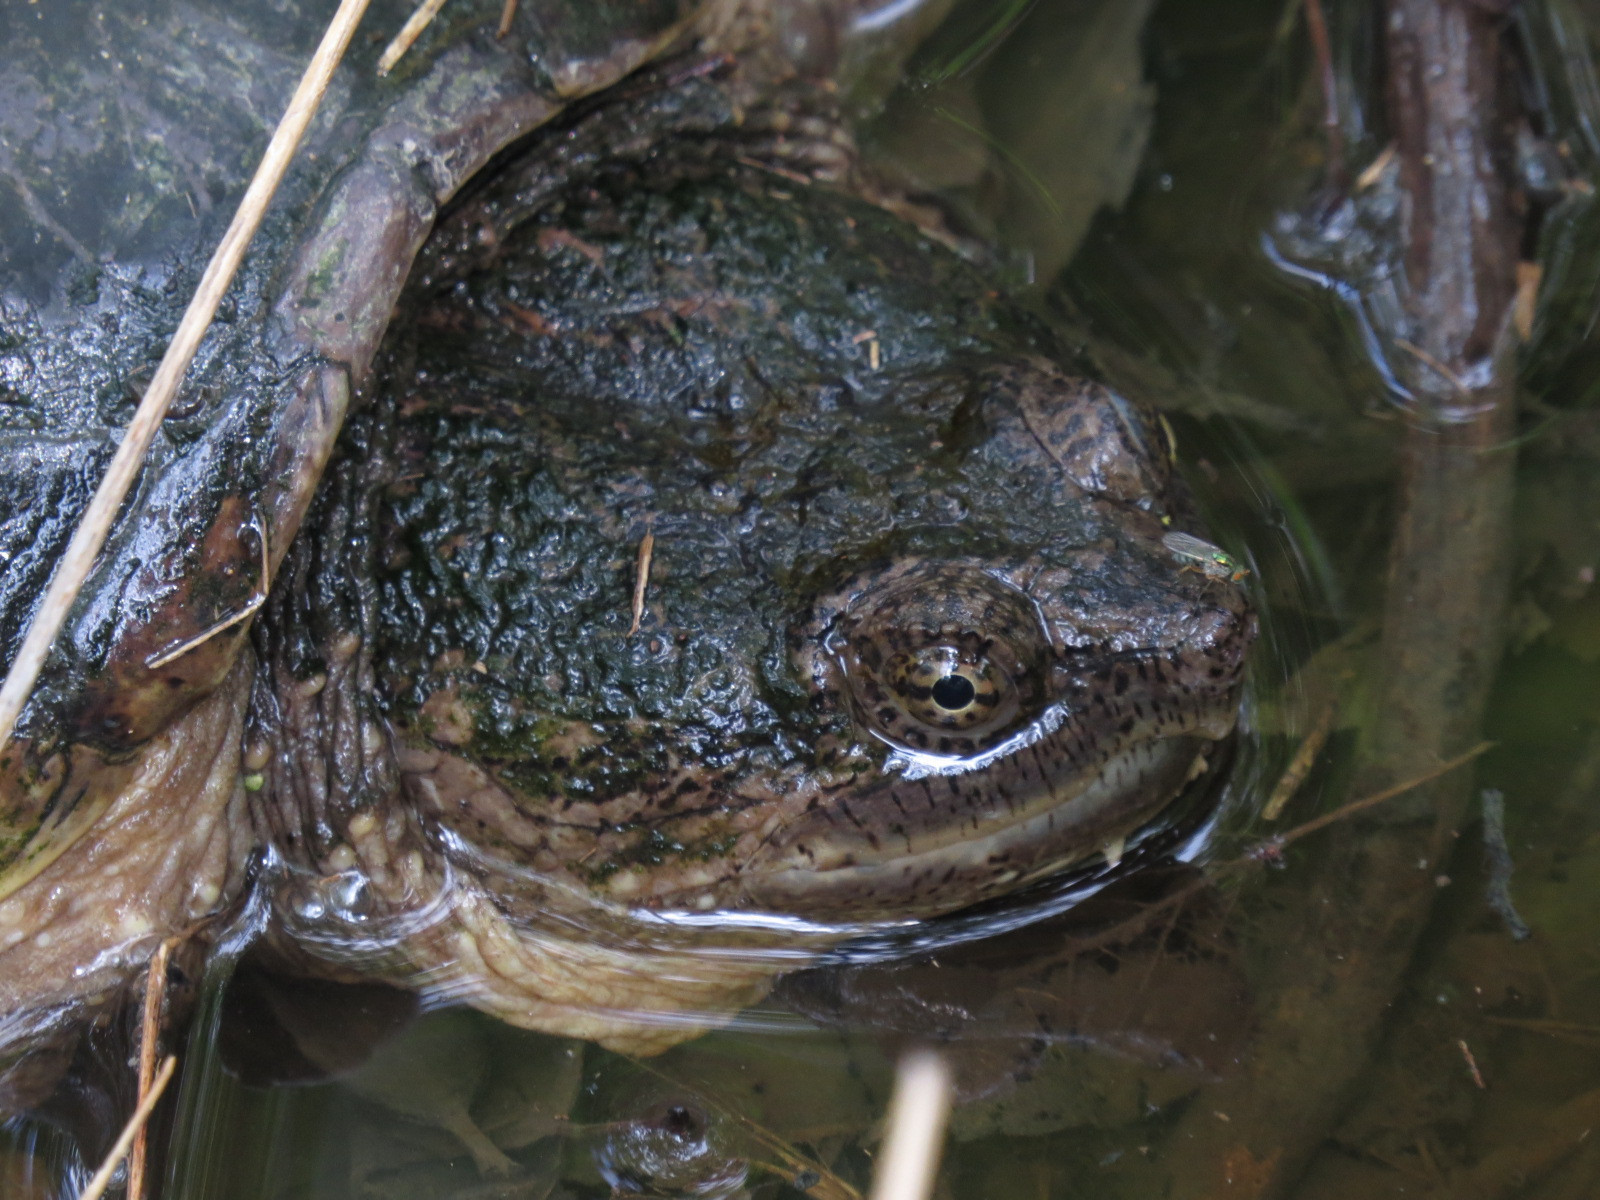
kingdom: Animalia
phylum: Chordata
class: Testudines
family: Chelydridae
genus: Chelydra
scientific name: Chelydra serpentina
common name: Common snapping turtle
